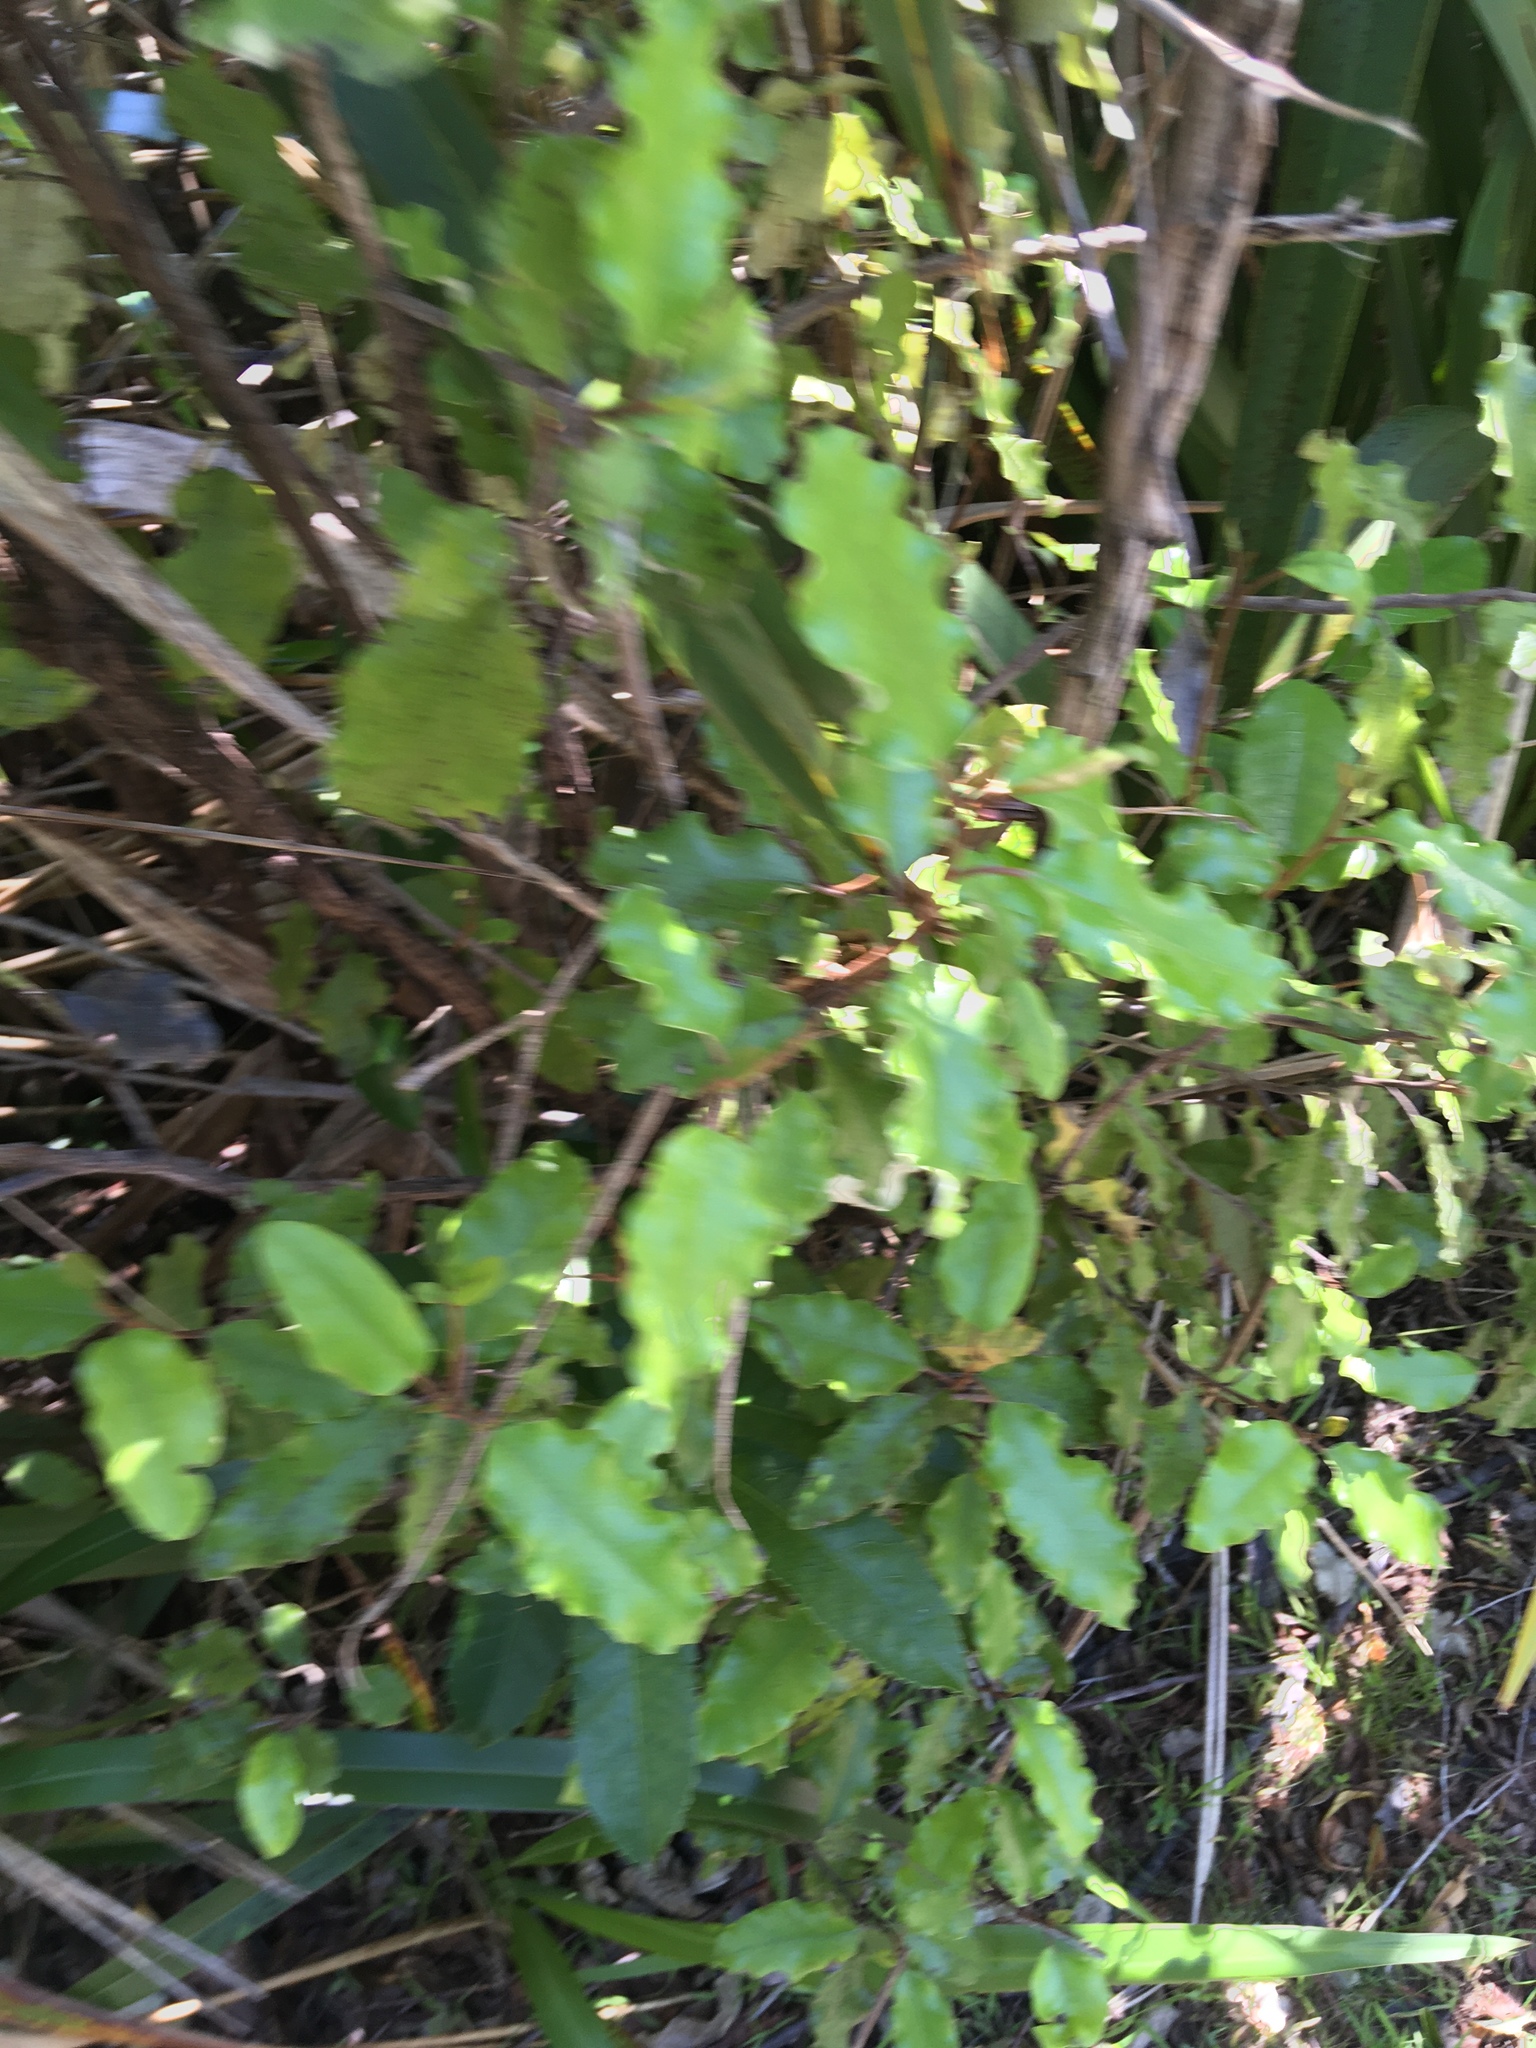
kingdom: Plantae
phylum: Tracheophyta
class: Magnoliopsida
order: Asterales
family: Asteraceae
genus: Olearia
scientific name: Olearia paniculata
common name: Akiraho
